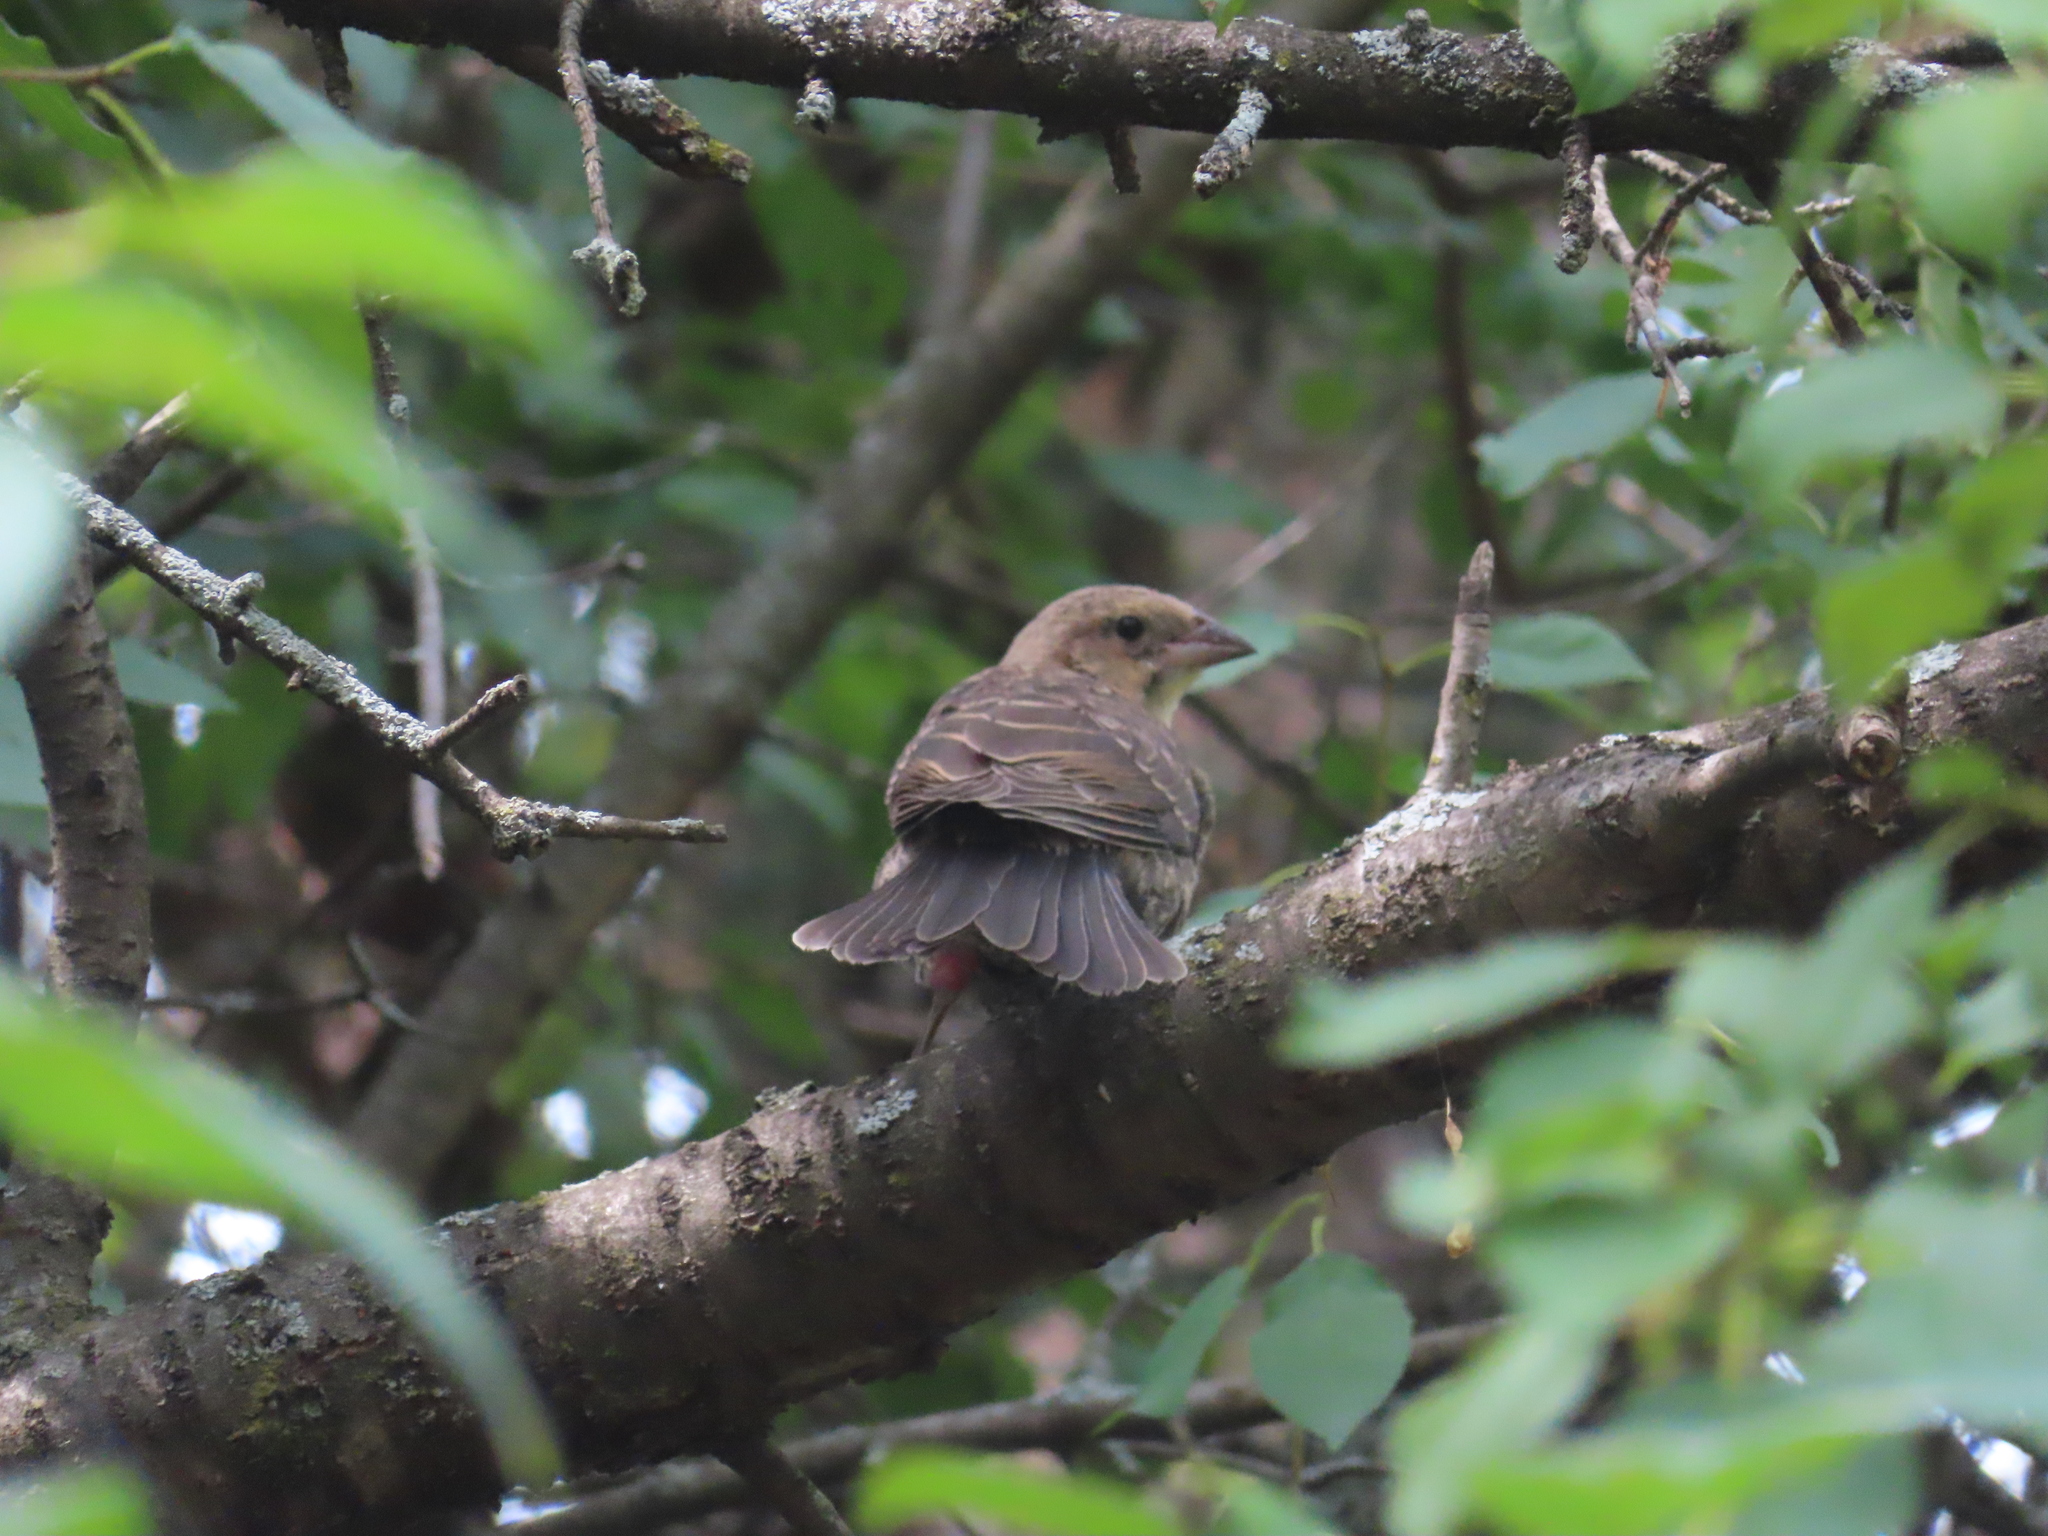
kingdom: Animalia
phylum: Chordata
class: Aves
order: Passeriformes
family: Icteridae
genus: Molothrus
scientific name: Molothrus ater
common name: Brown-headed cowbird
